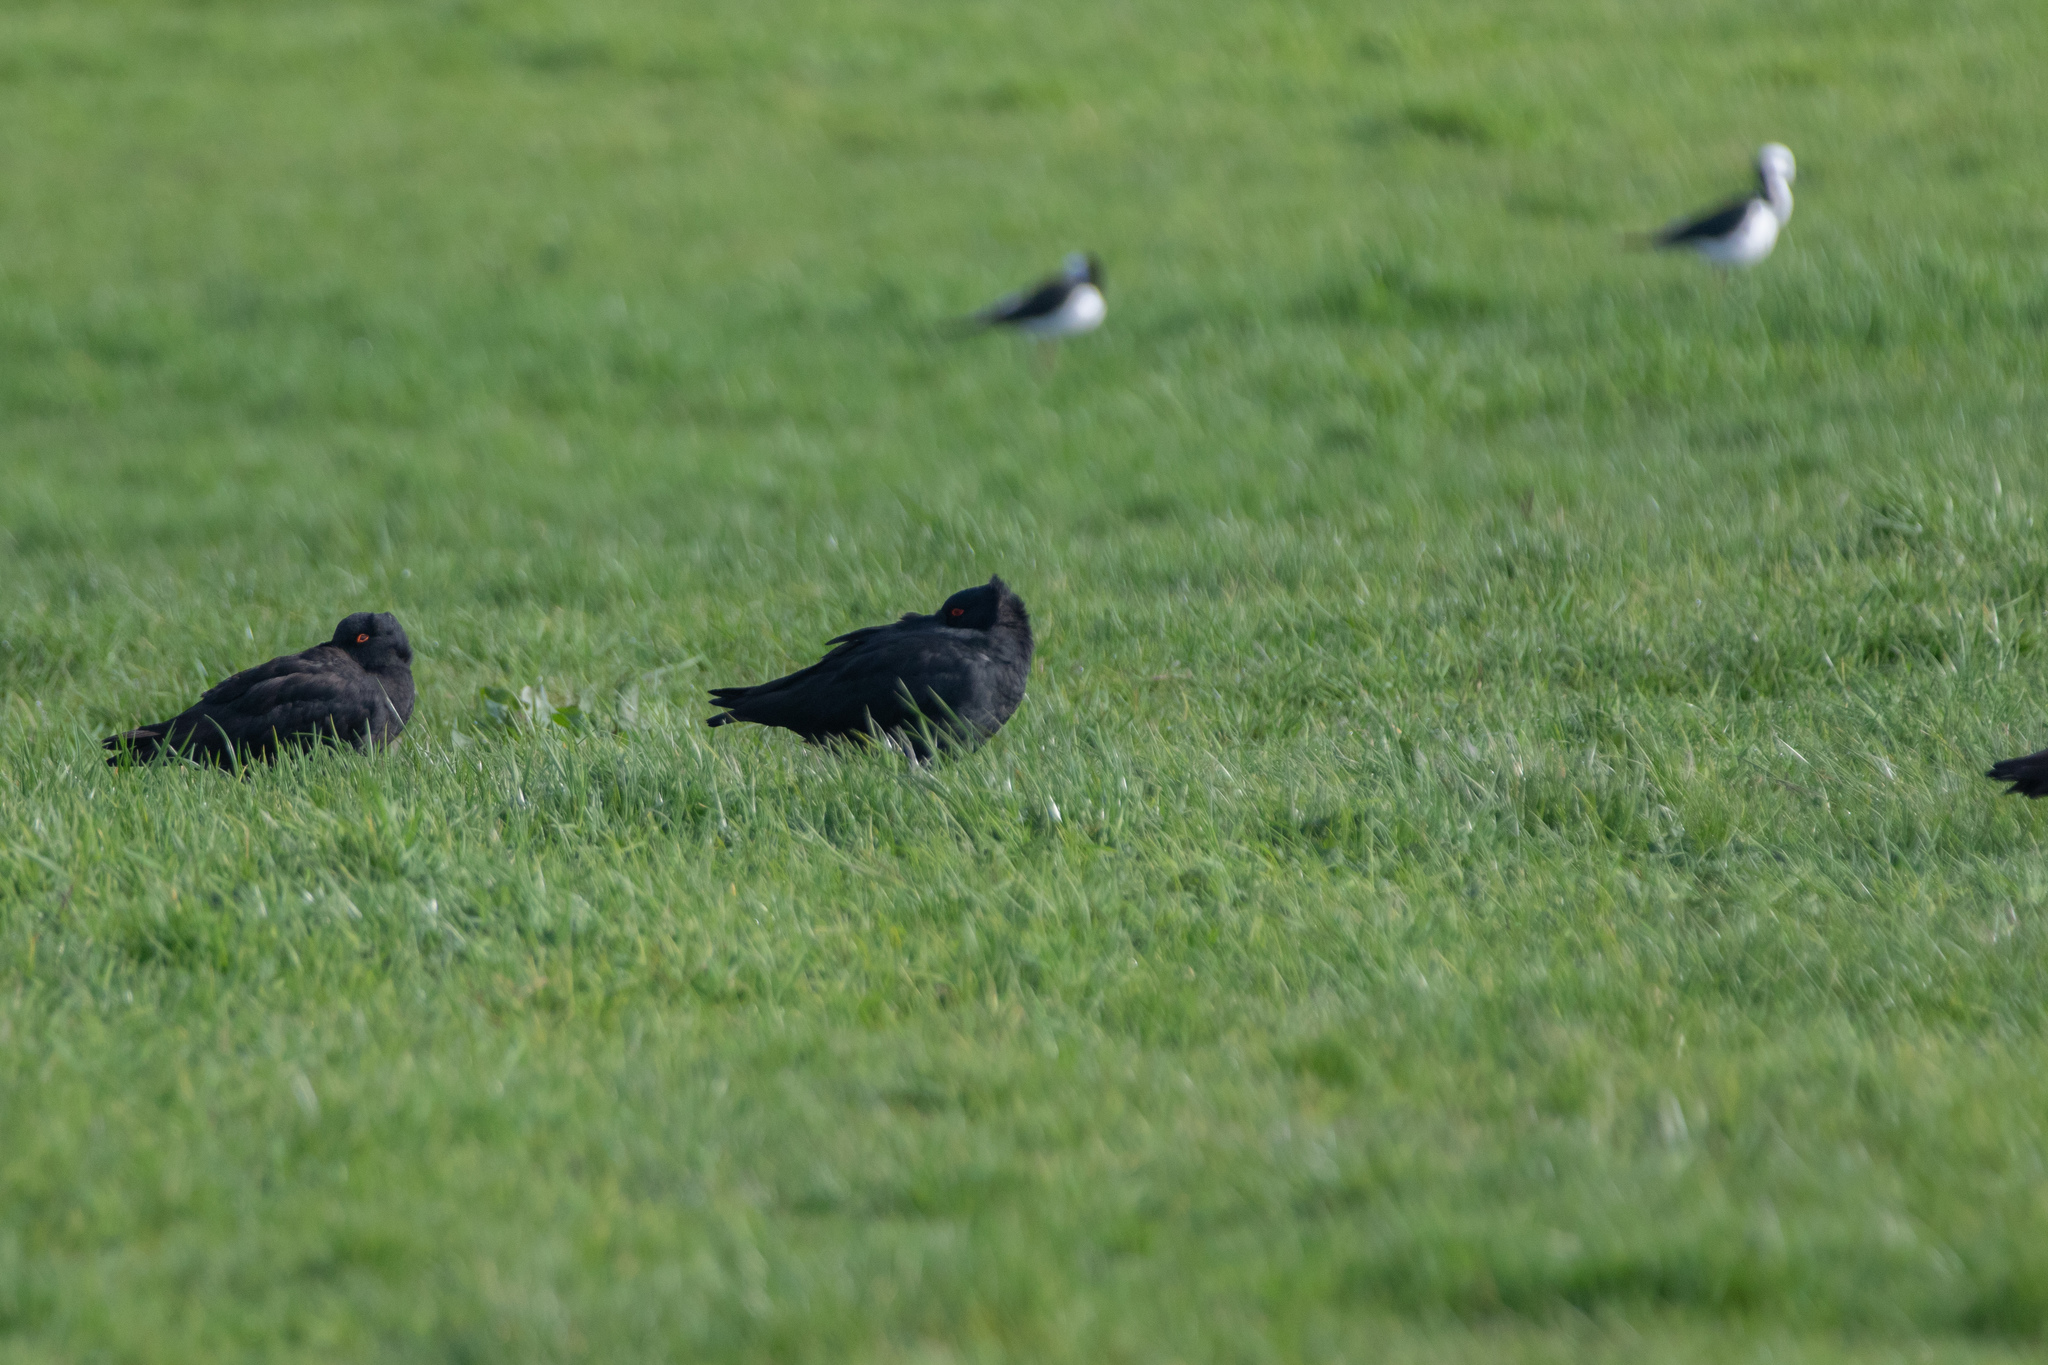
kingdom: Animalia
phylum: Chordata
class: Aves
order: Charadriiformes
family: Haematopodidae
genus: Haematopus
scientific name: Haematopus unicolor
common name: Variable oystercatcher
